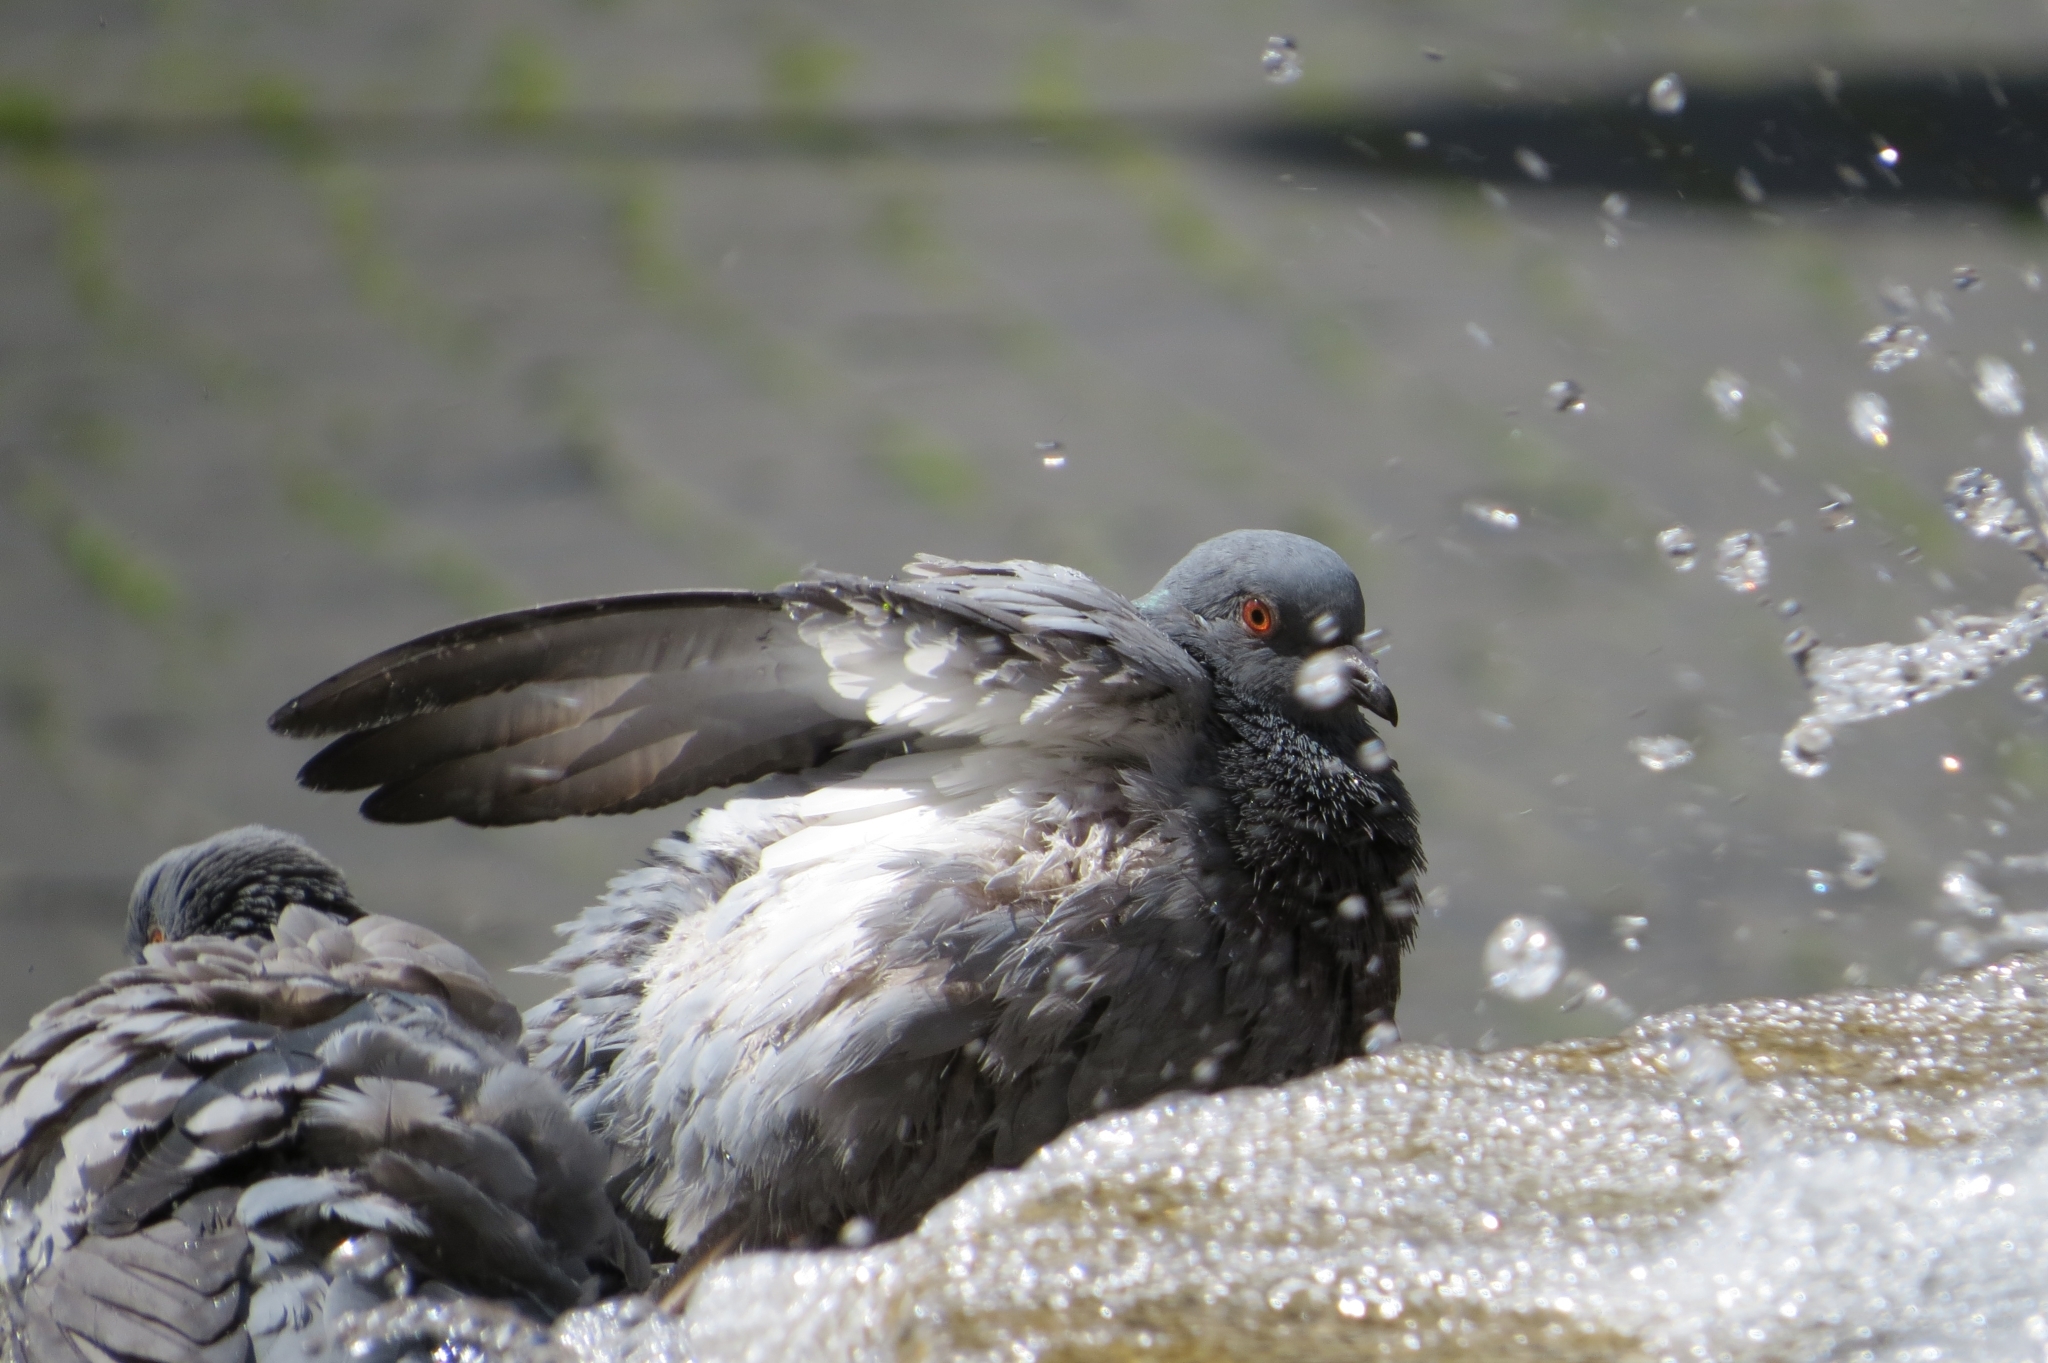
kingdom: Animalia
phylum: Chordata
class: Aves
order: Columbiformes
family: Columbidae
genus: Columba
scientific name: Columba livia
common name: Rock pigeon
